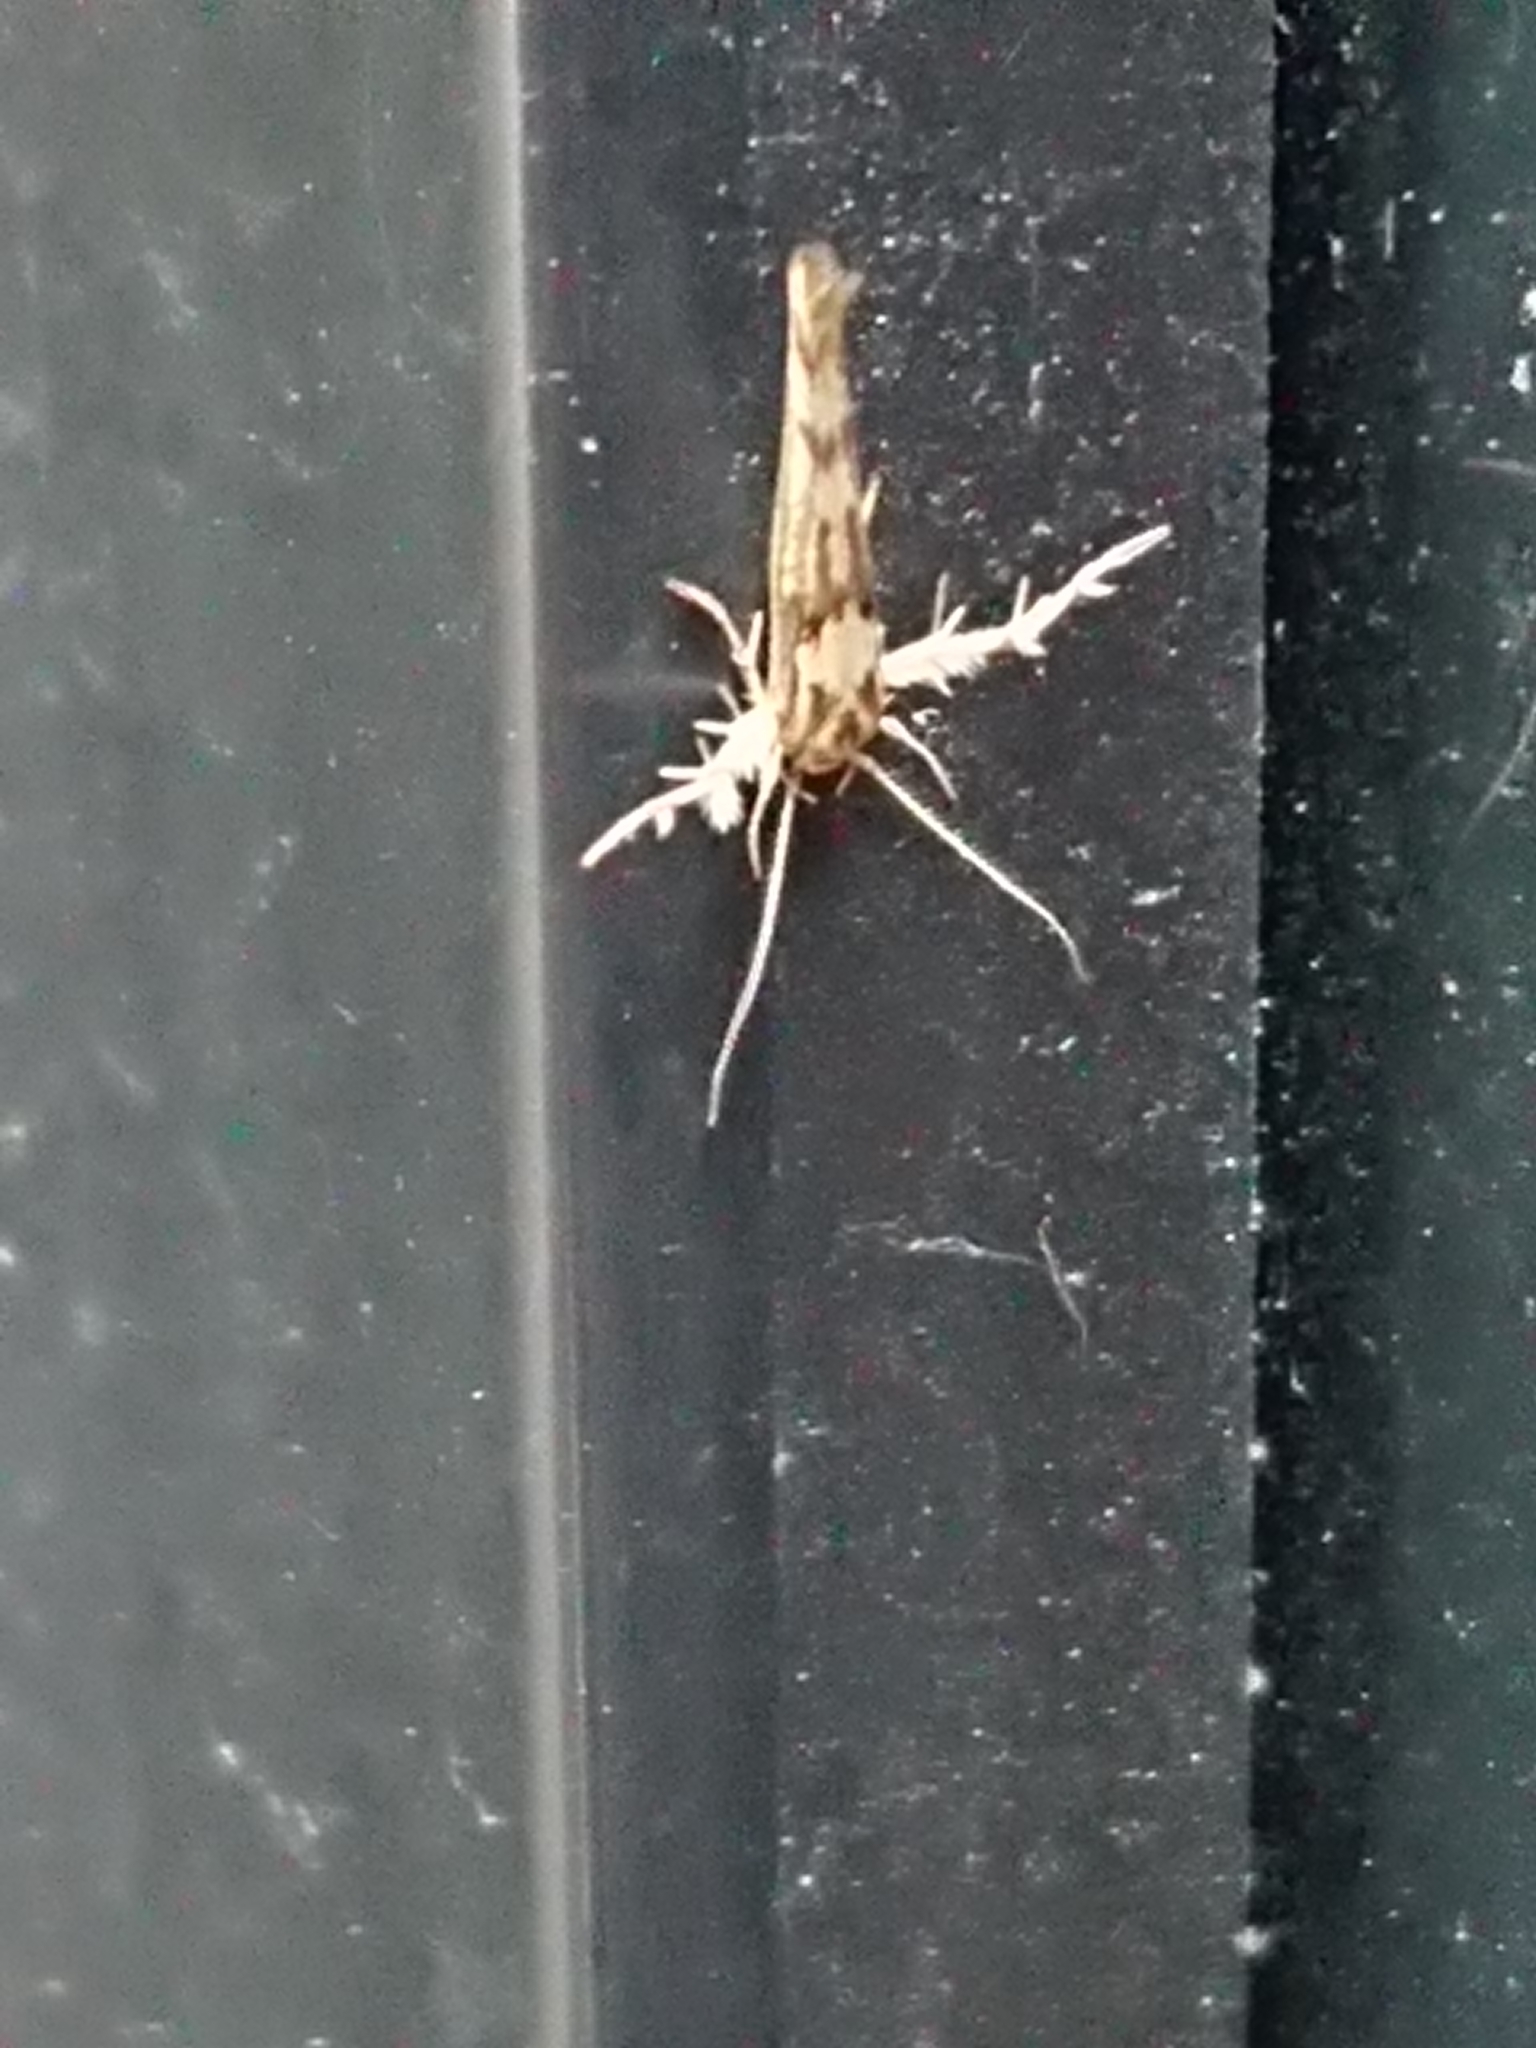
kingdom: Animalia
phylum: Arthropoda
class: Insecta
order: Lepidoptera
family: Stathmopodidae
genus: Stathmopoda
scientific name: Stathmopoda plumbiflua
